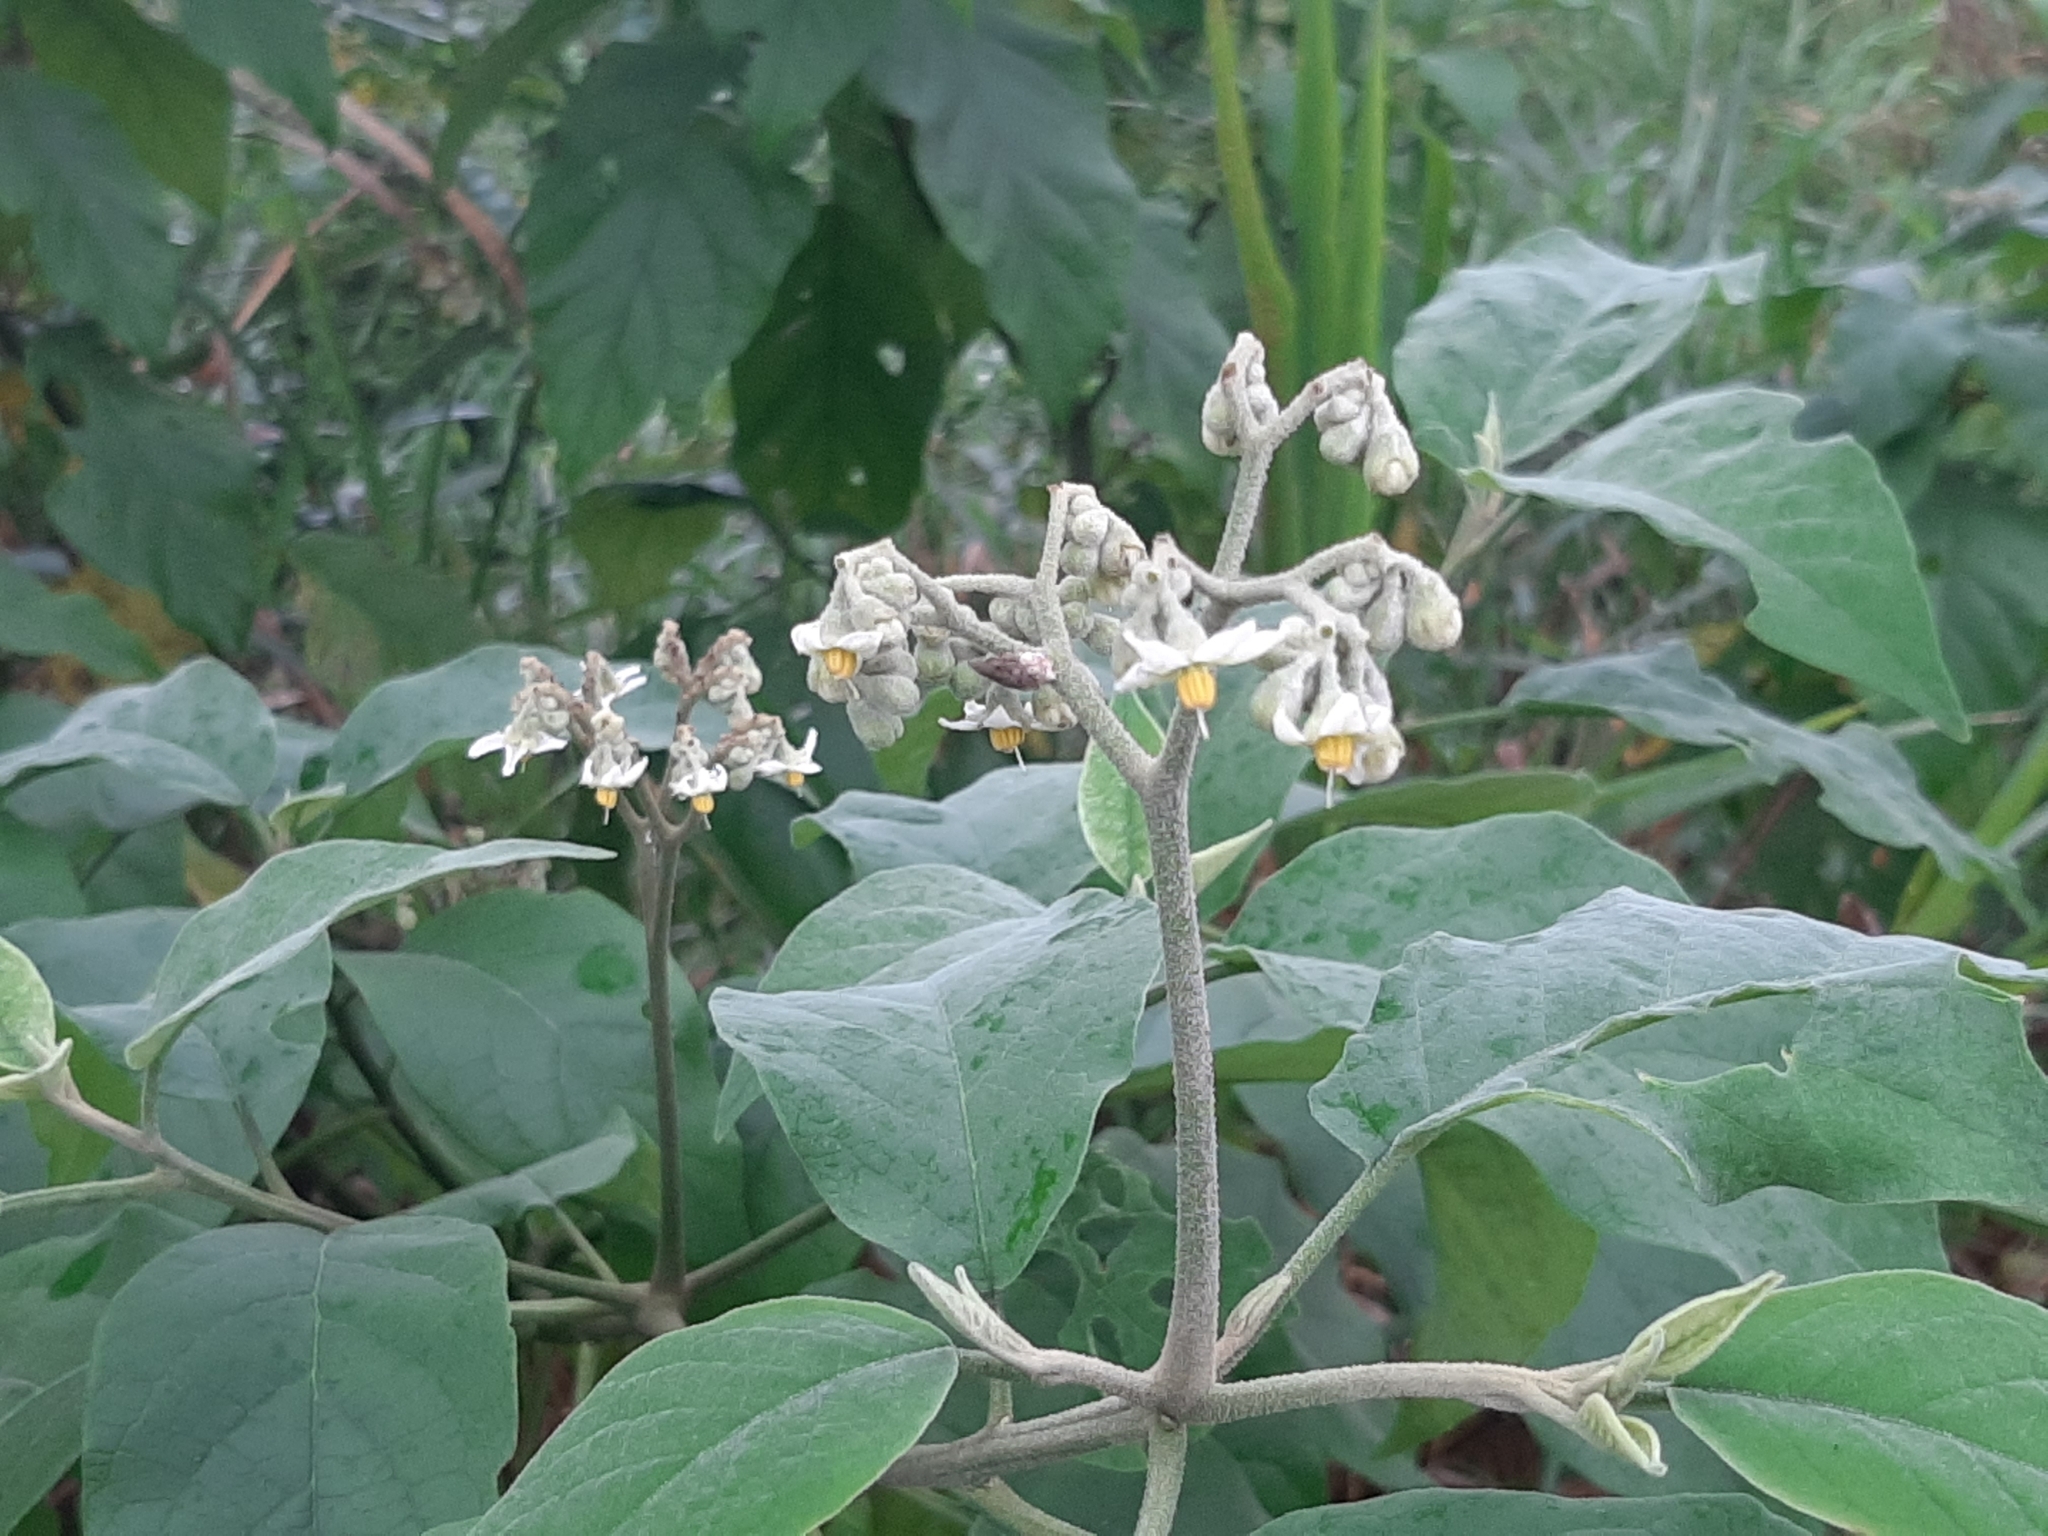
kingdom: Plantae
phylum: Tracheophyta
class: Magnoliopsida
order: Solanales
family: Solanaceae
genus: Solanum
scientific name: Solanum erianthum
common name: Tobacco-tree
